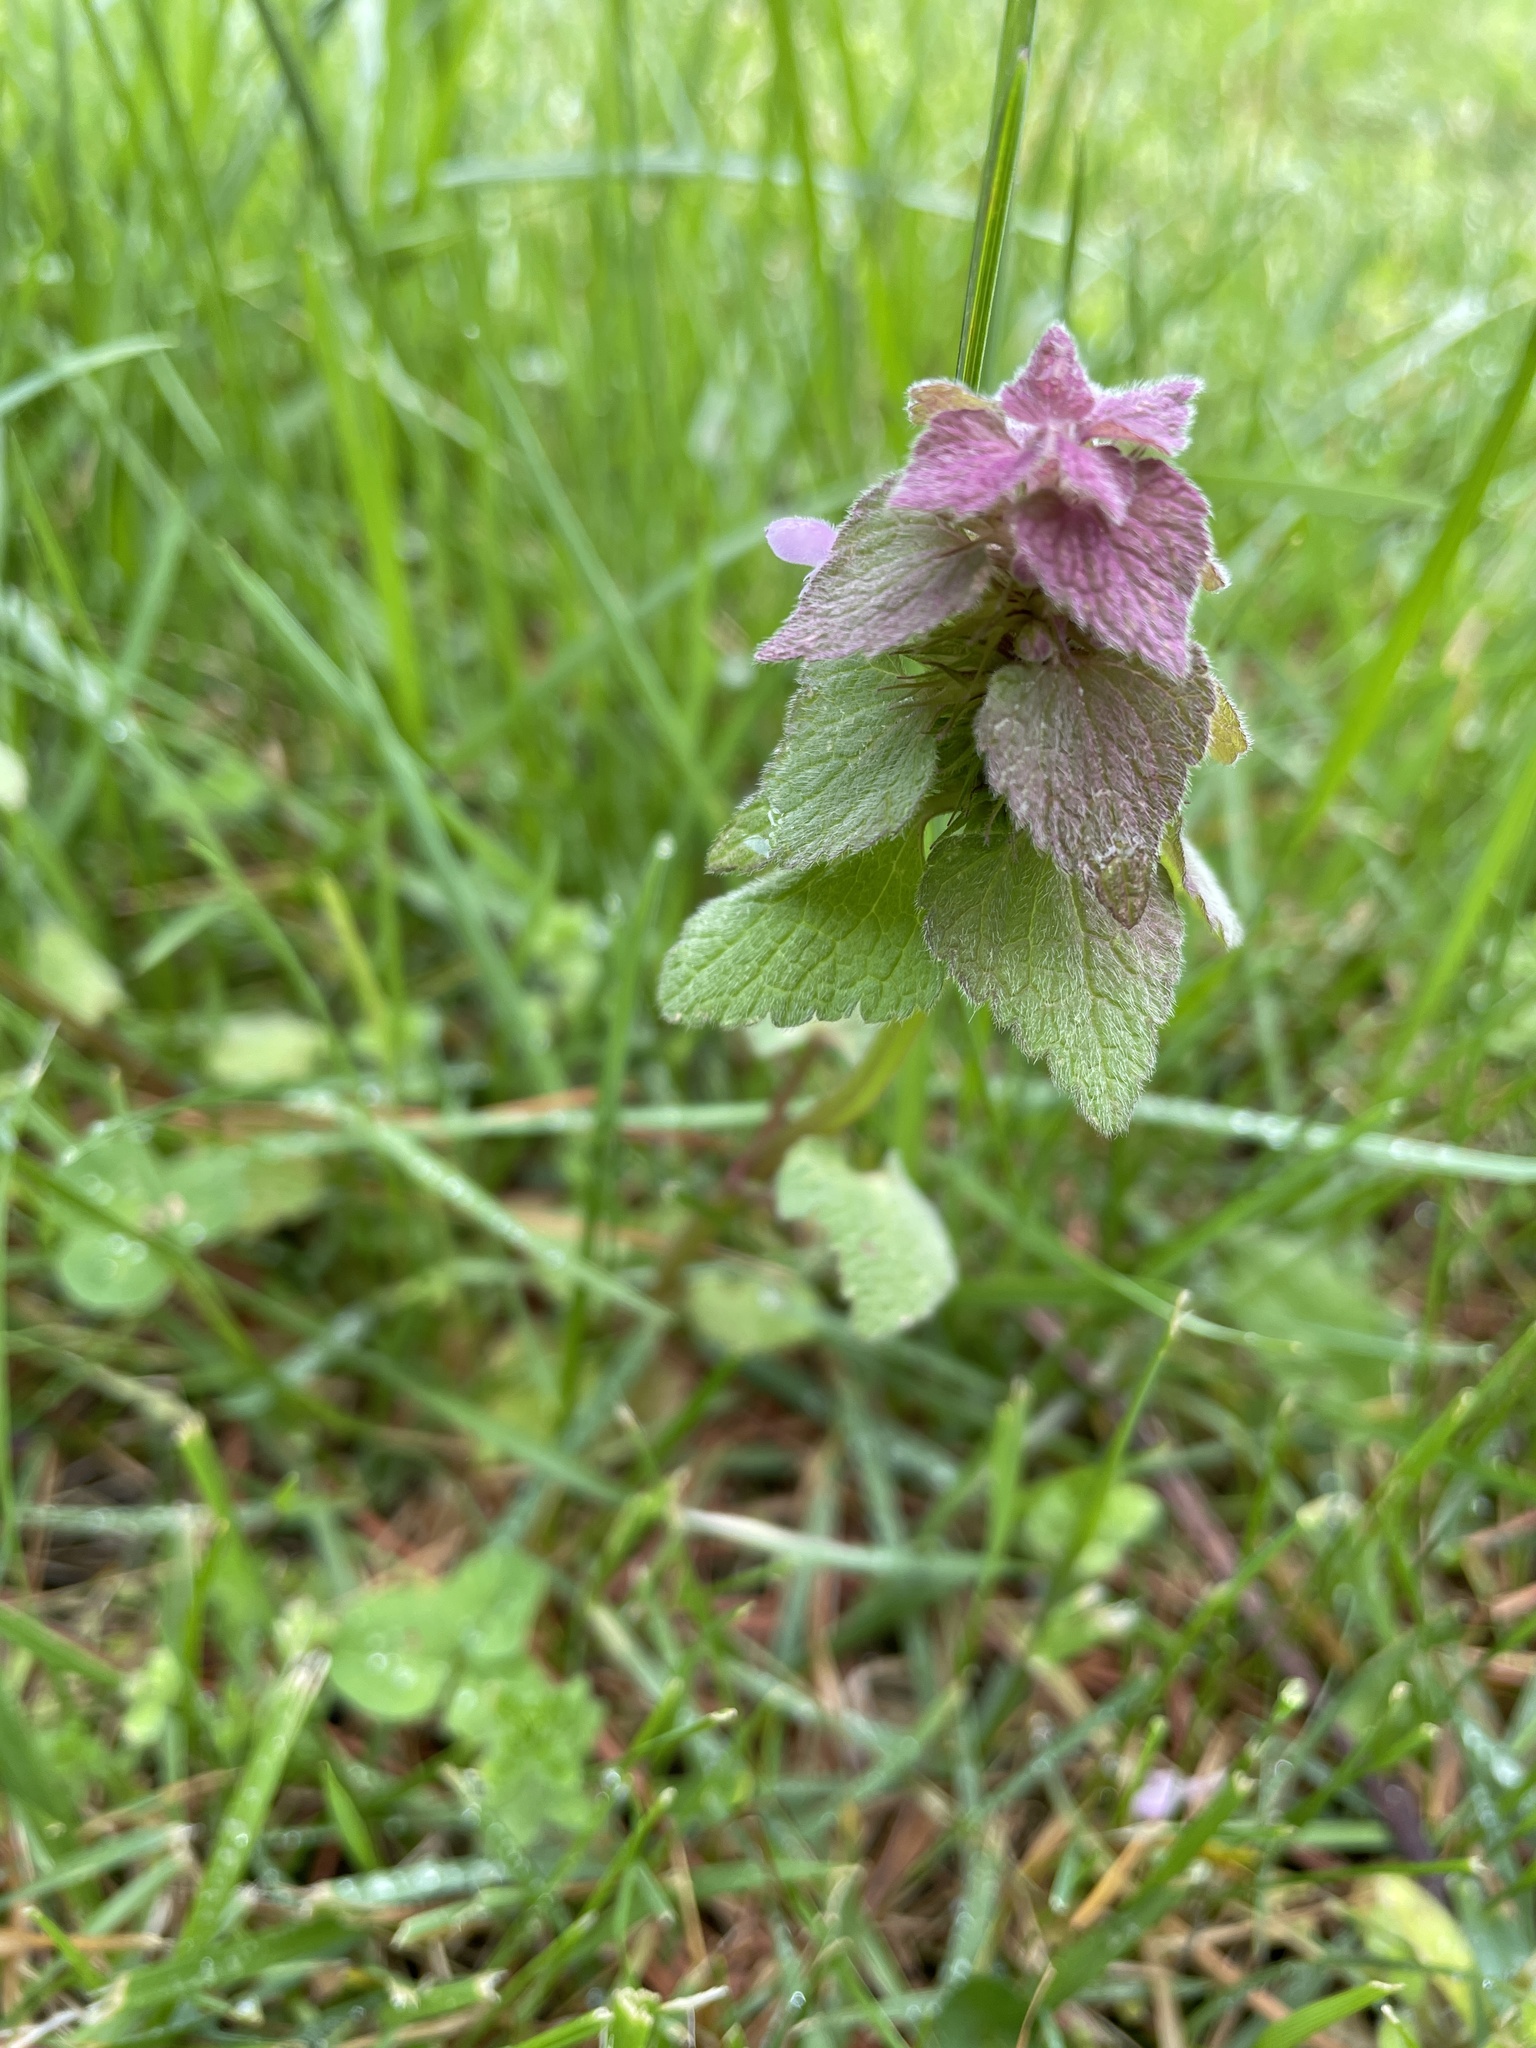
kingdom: Plantae
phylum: Tracheophyta
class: Magnoliopsida
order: Lamiales
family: Lamiaceae
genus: Lamium
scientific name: Lamium purpureum
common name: Red dead-nettle
